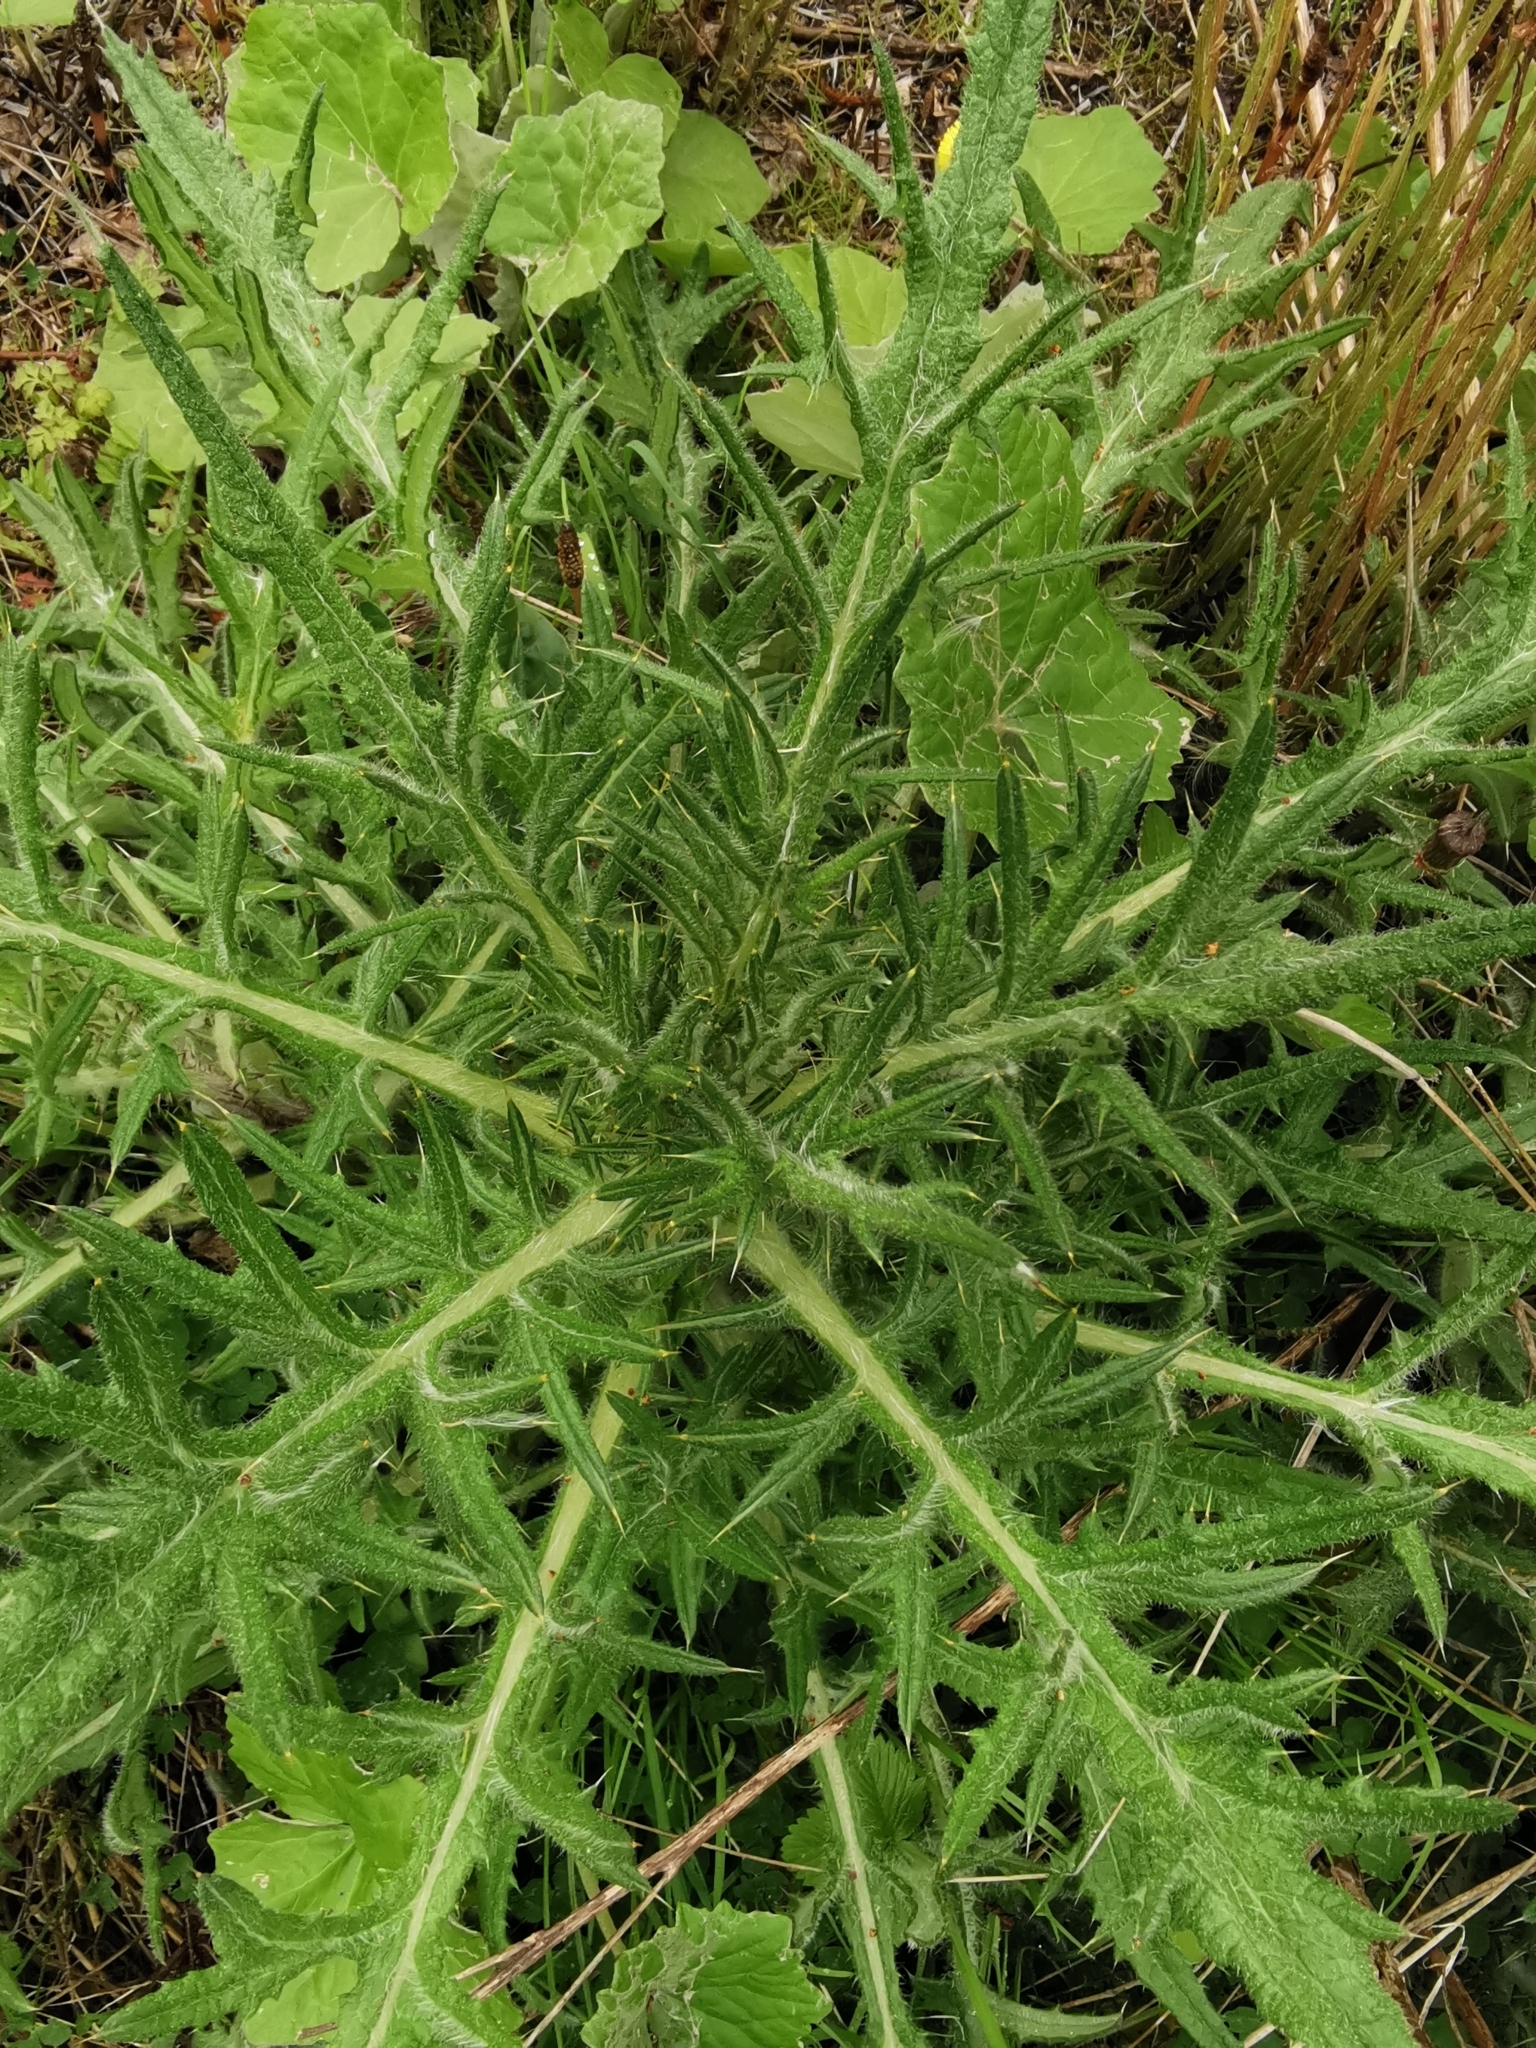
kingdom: Plantae
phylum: Tracheophyta
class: Magnoliopsida
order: Asterales
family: Asteraceae
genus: Cirsium
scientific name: Cirsium vulgare
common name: Bull thistle
